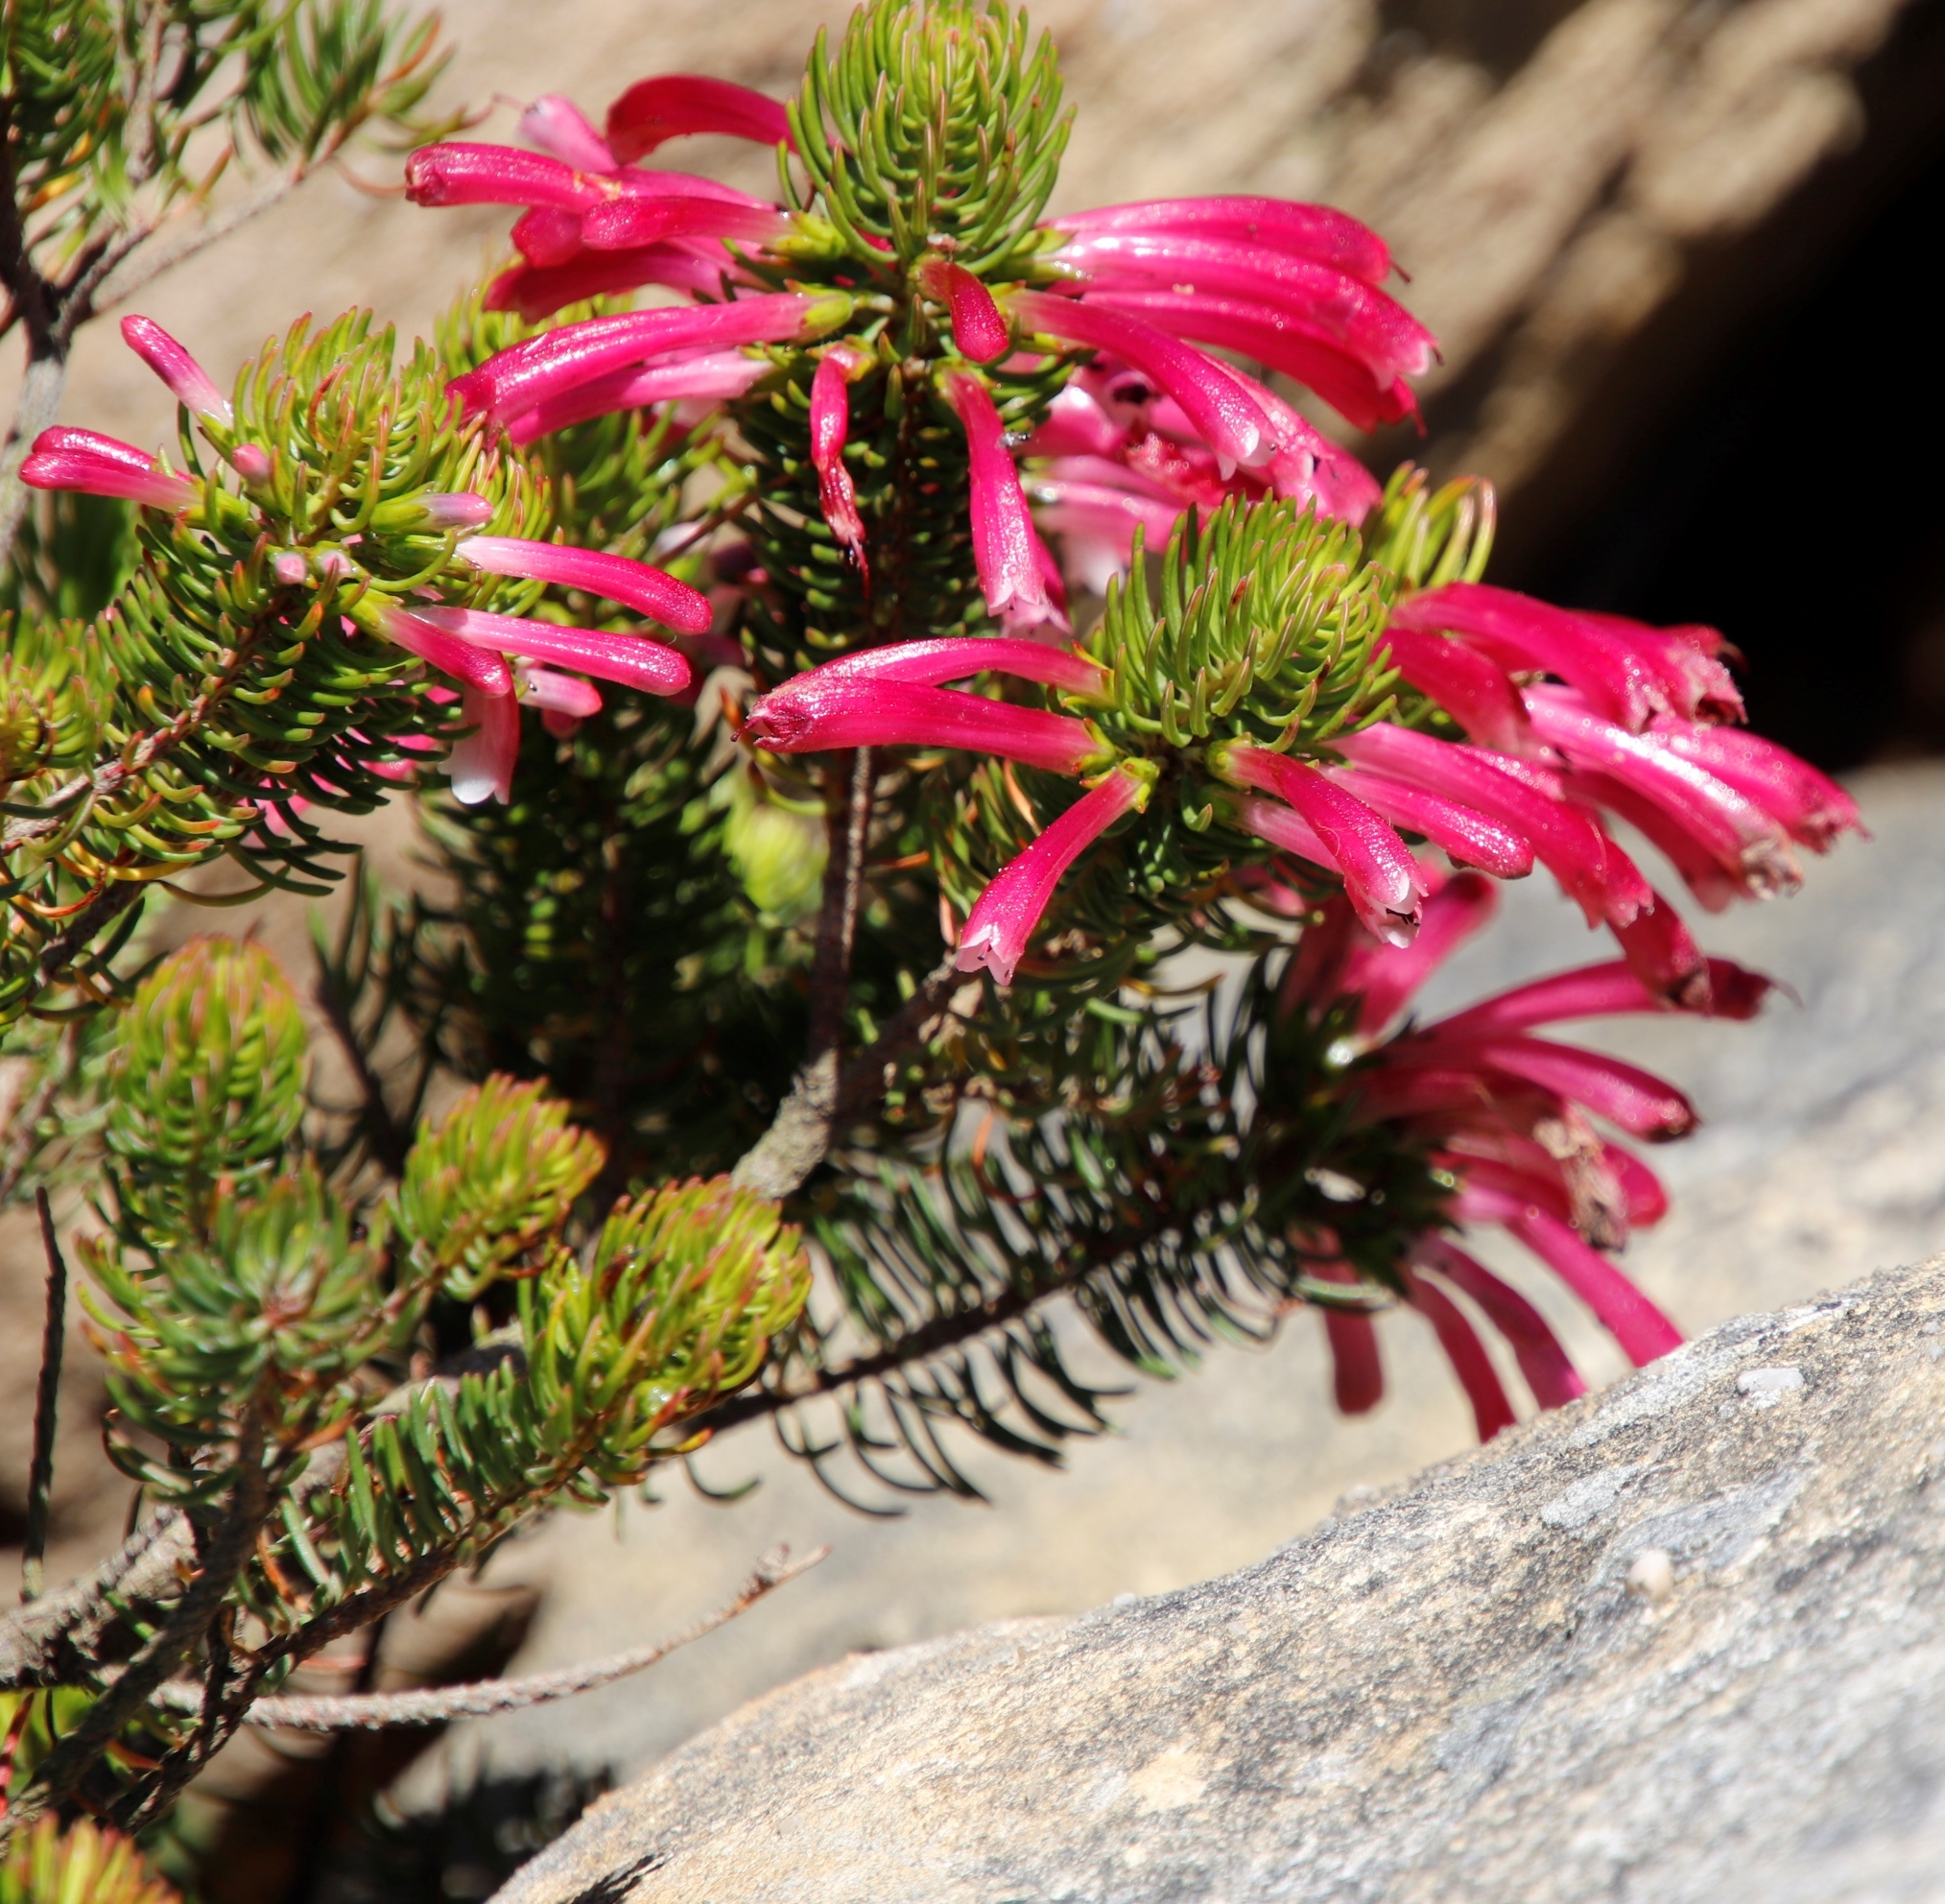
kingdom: Plantae
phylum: Tracheophyta
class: Magnoliopsida
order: Ericales
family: Ericaceae
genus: Erica
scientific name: Erica thomae
